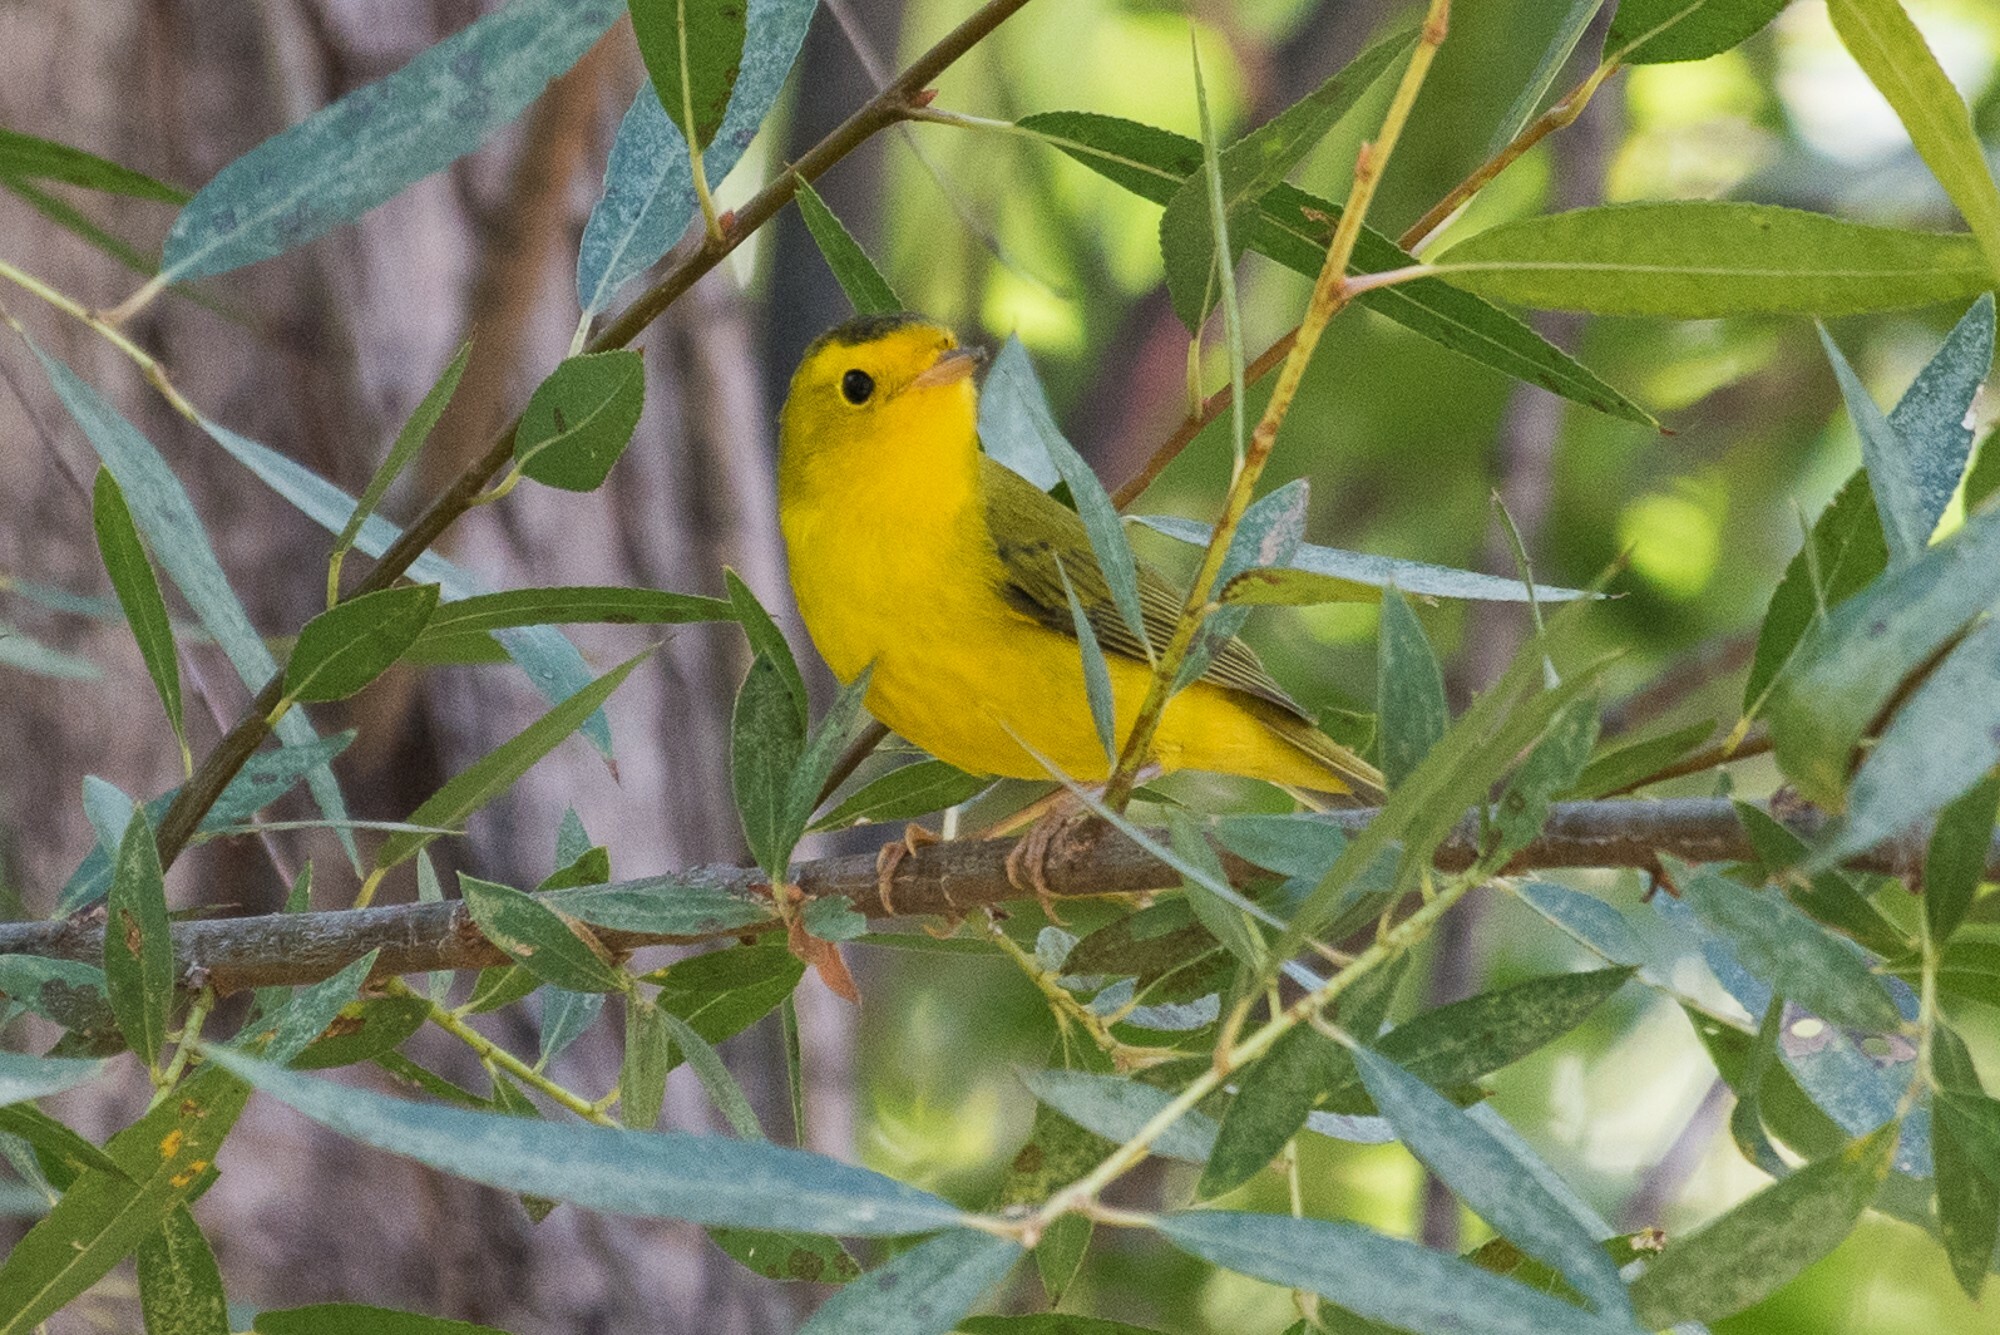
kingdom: Animalia
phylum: Chordata
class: Aves
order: Passeriformes
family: Parulidae
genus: Cardellina
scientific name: Cardellina pusilla
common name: Wilson's warbler
